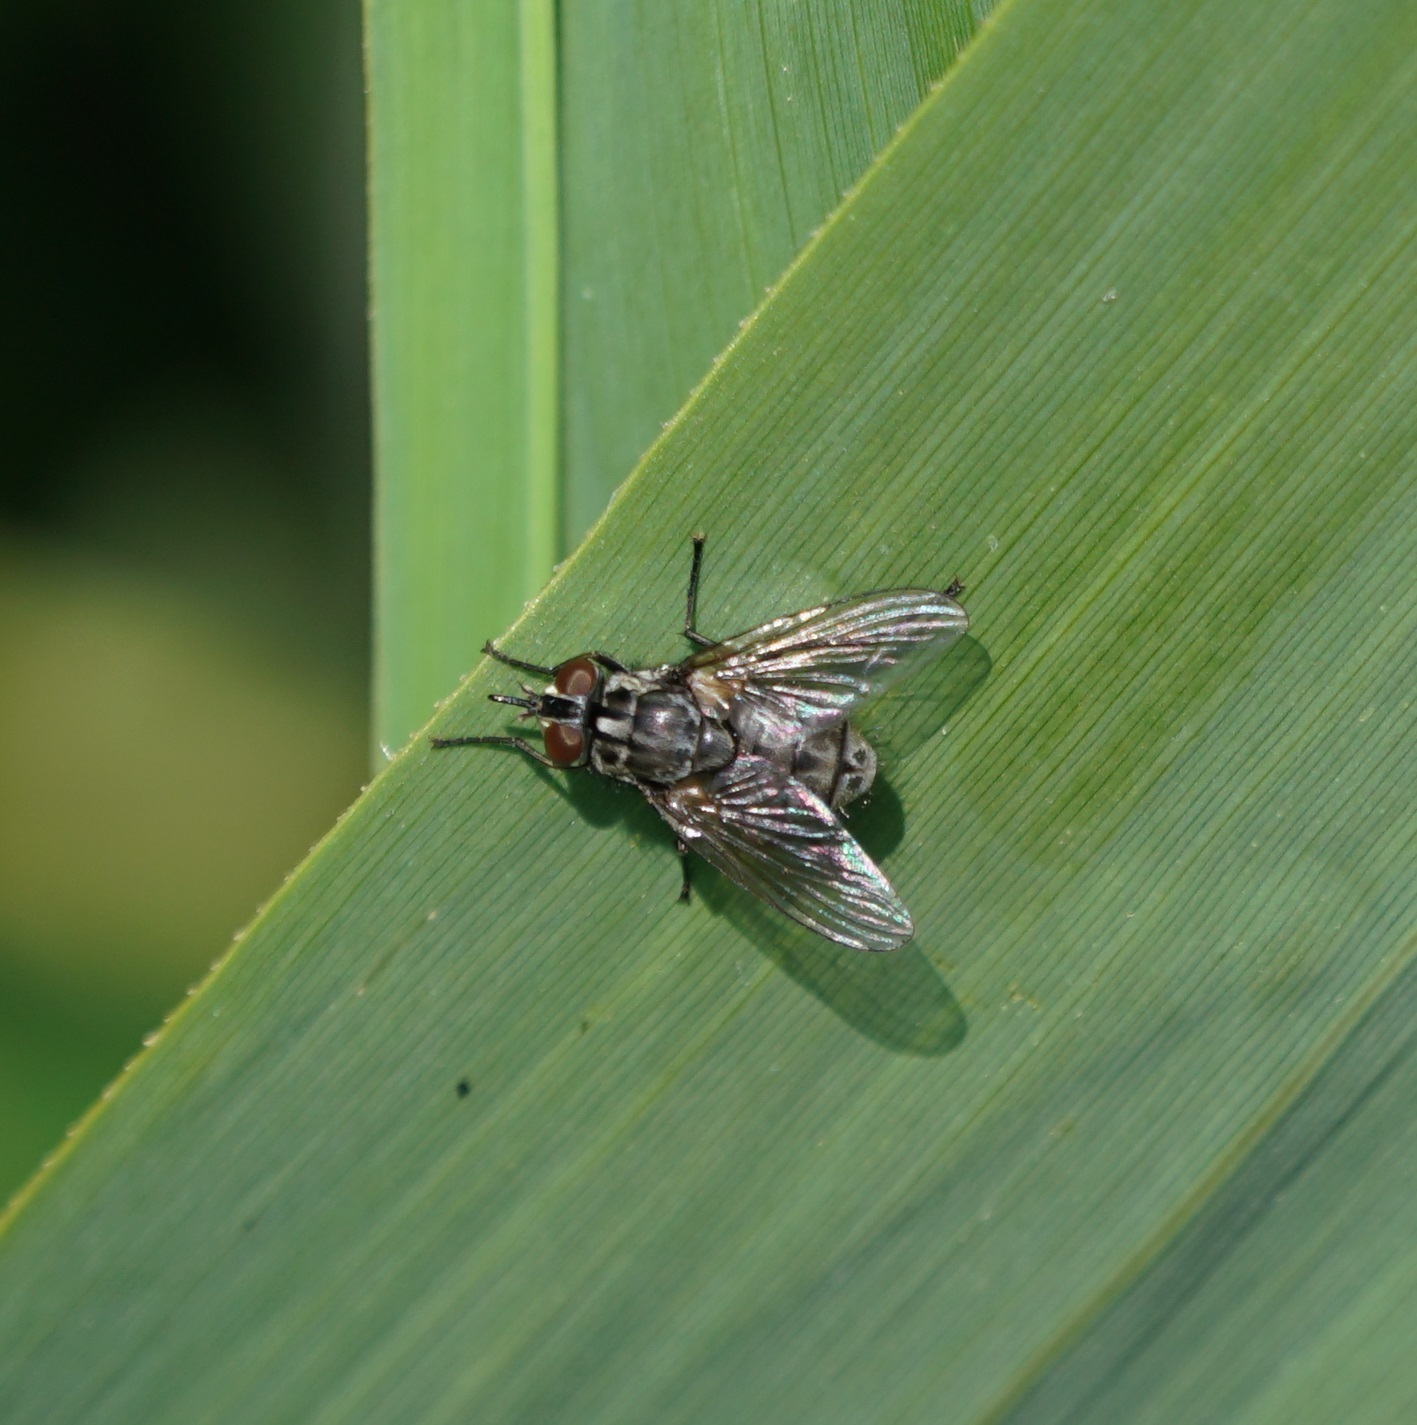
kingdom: Animalia
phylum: Arthropoda
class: Insecta
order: Diptera
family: Muscidae
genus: Stomoxys
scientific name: Stomoxys calcitrans
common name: Stable fly
